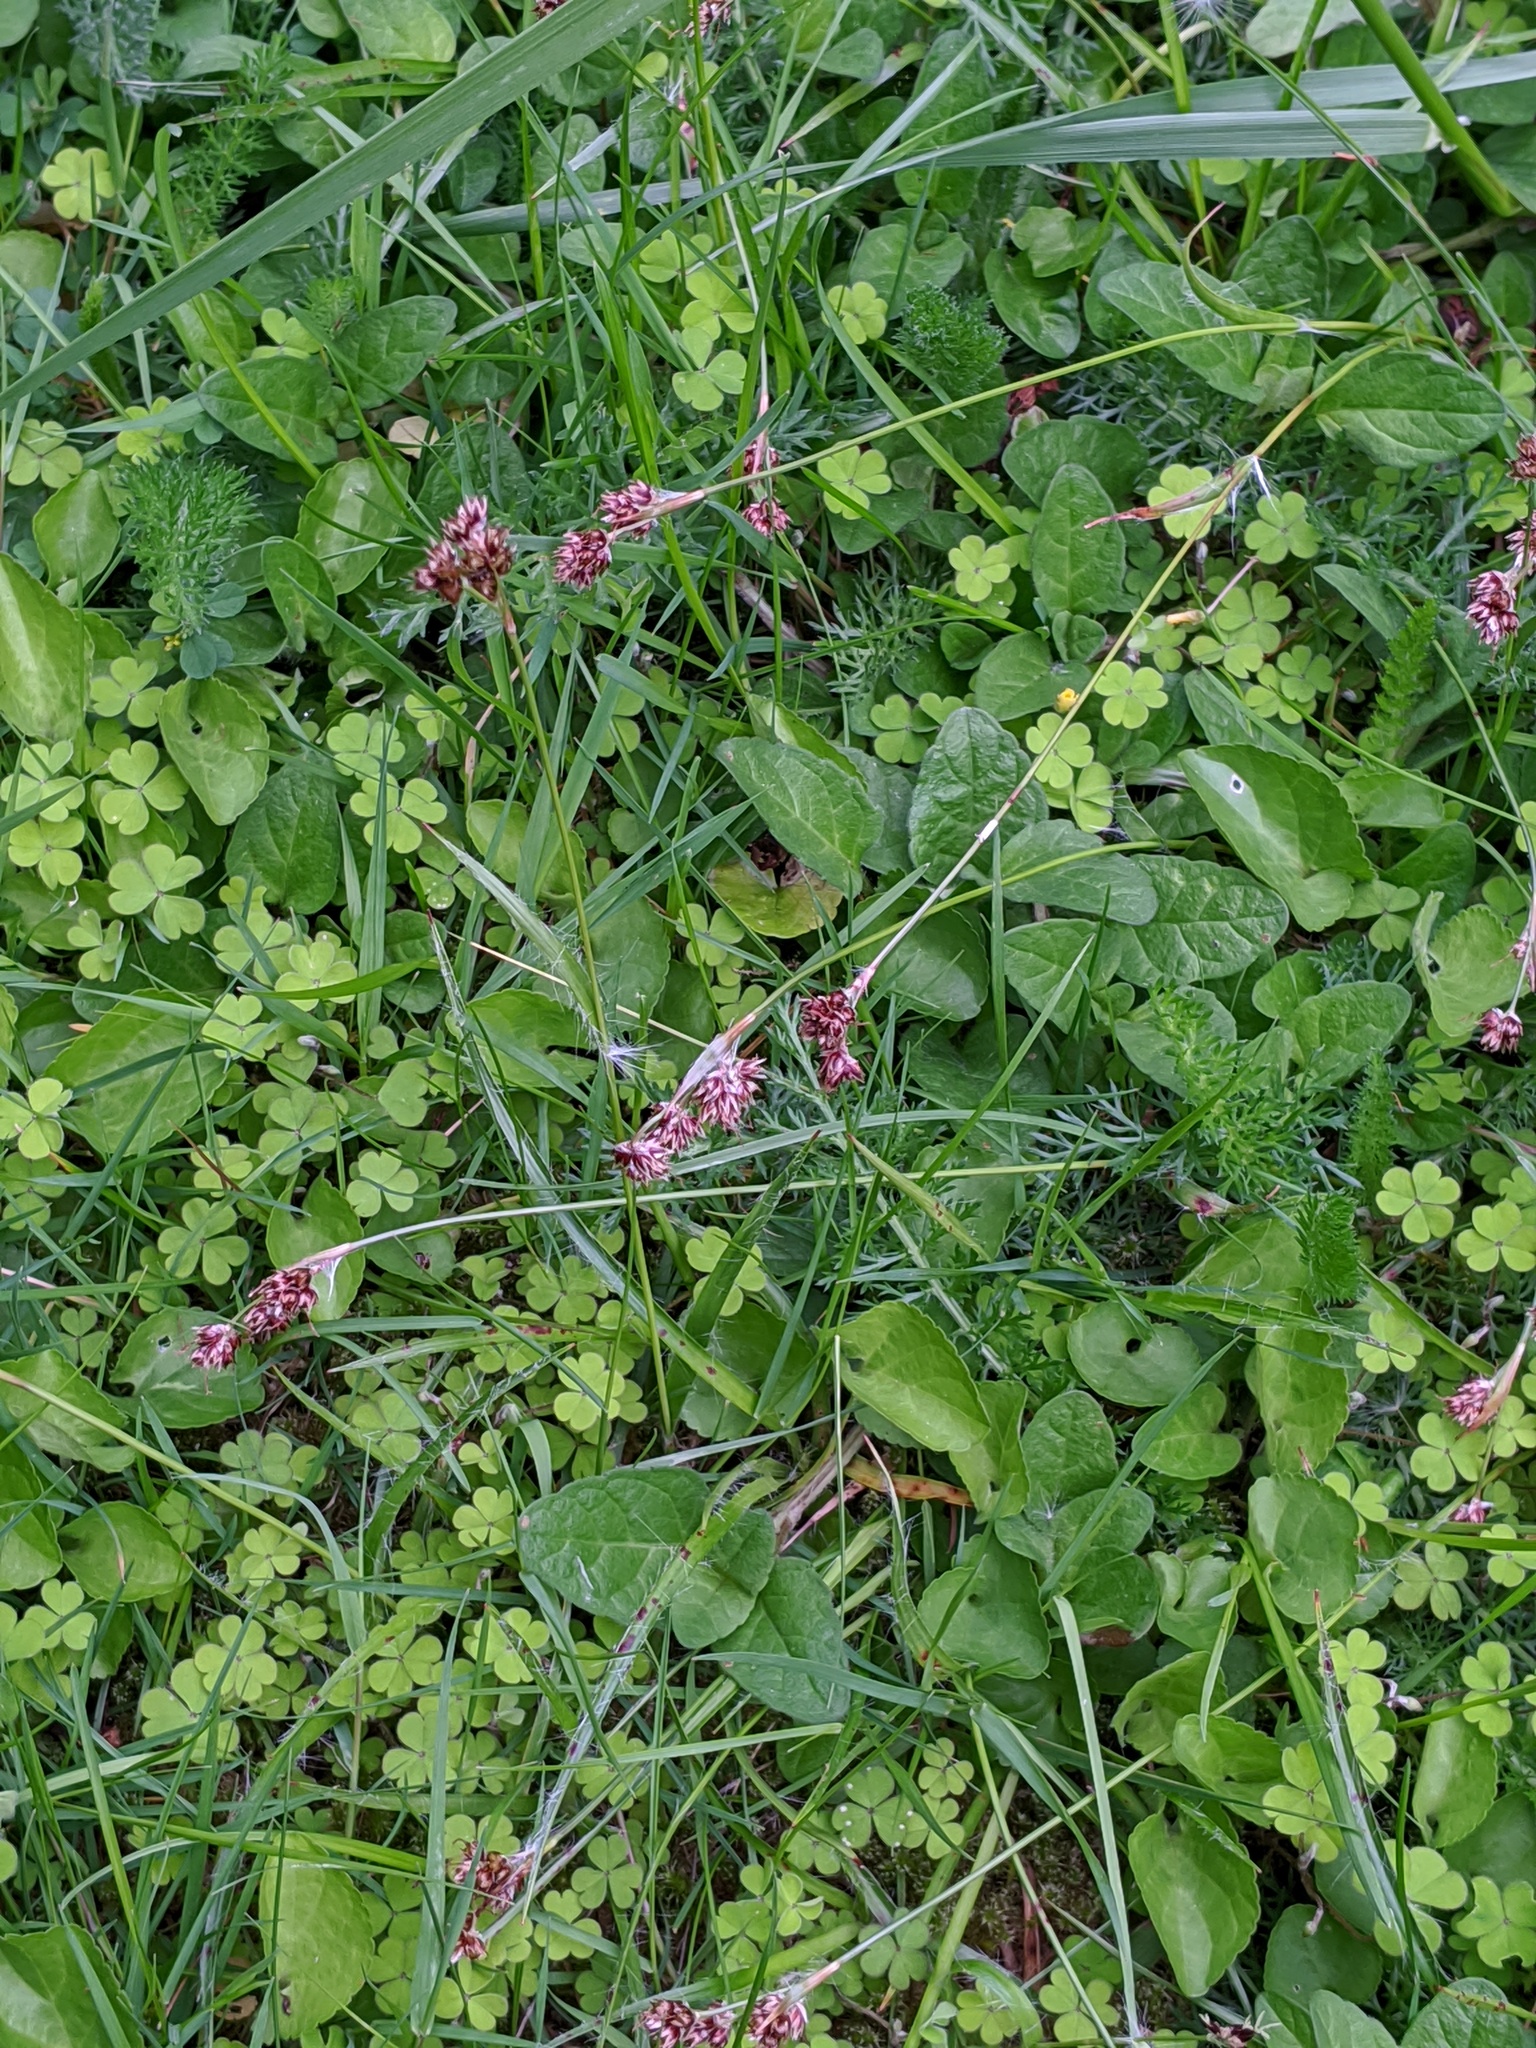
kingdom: Plantae
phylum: Tracheophyta
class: Liliopsida
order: Poales
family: Juncaceae
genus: Luzula
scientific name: Luzula campestris
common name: Field wood-rush
